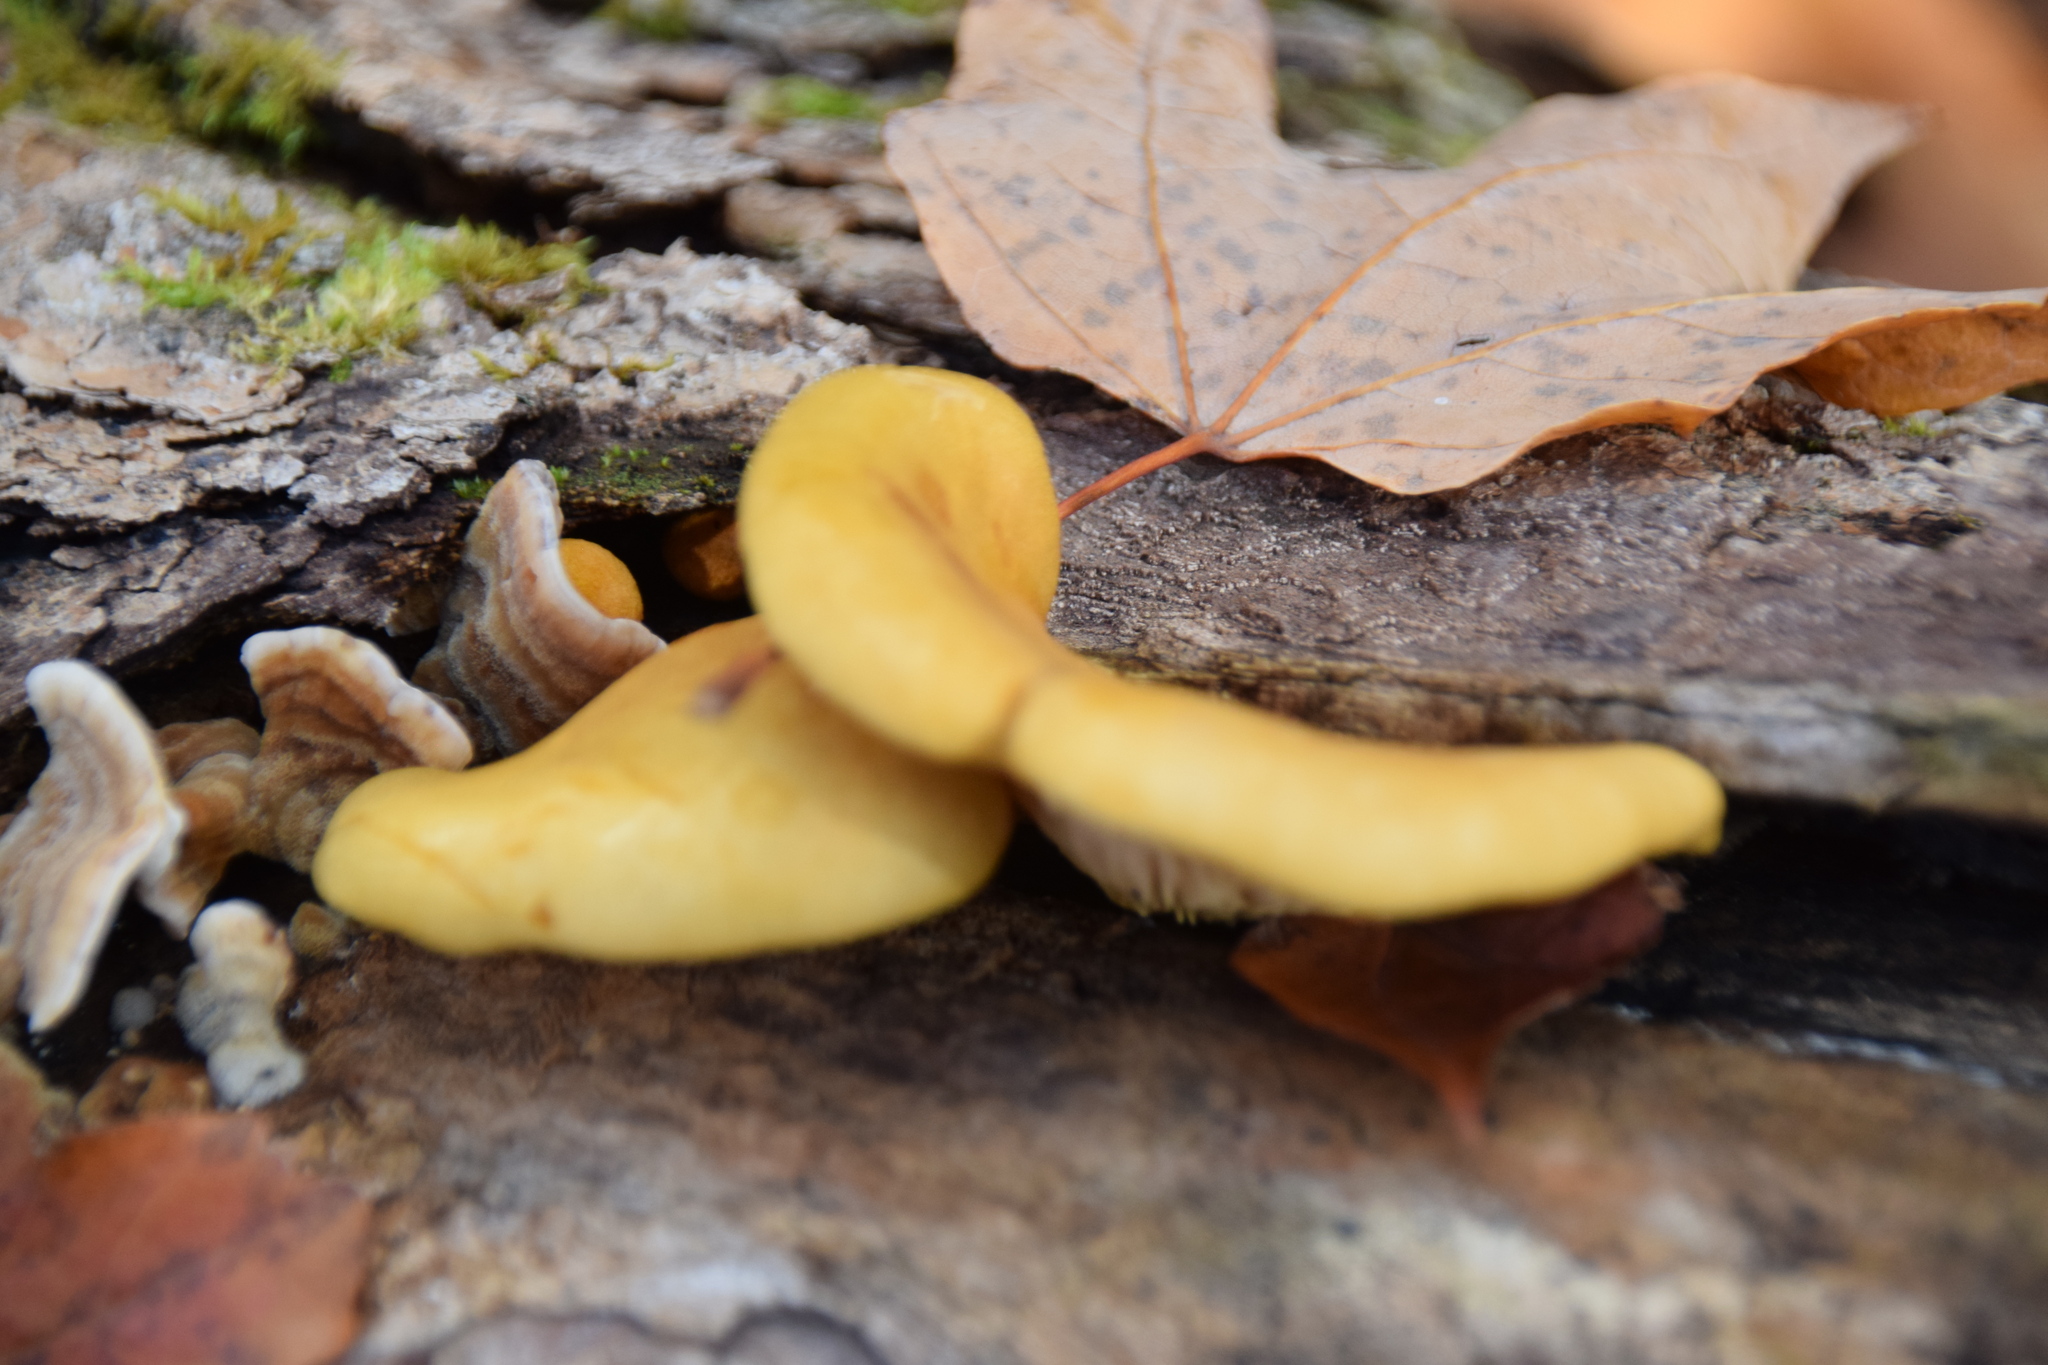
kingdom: Fungi
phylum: Basidiomycota
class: Agaricomycetes
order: Agaricales
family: Sarcomyxaceae
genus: Sarcomyxa
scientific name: Sarcomyxa serotina
